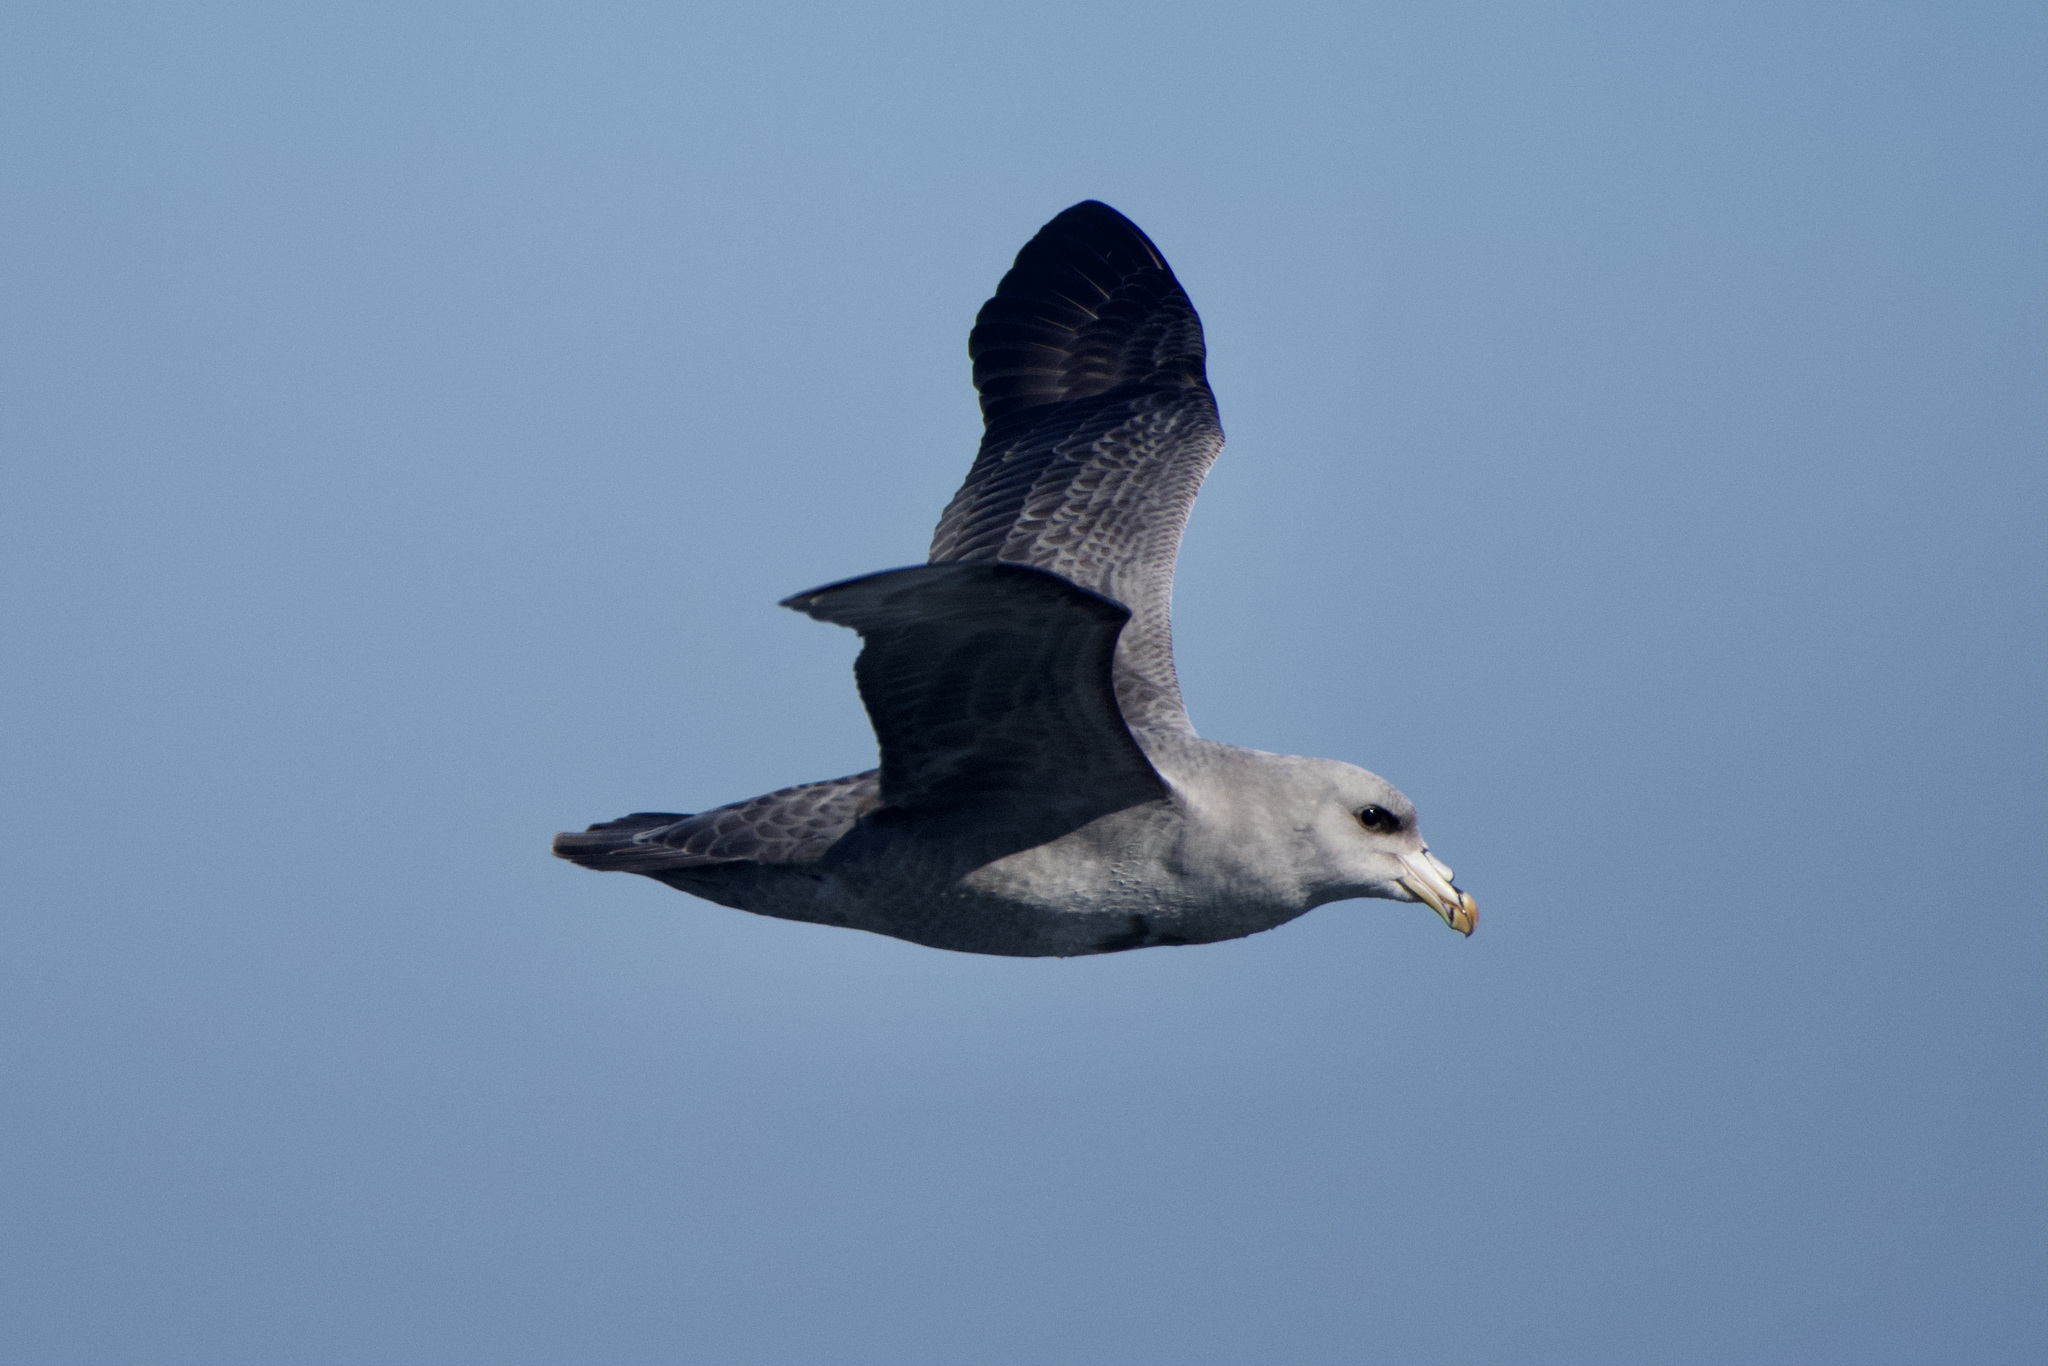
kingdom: Animalia
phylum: Chordata
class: Aves
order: Procellariiformes
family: Procellariidae
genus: Fulmarus
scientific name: Fulmarus glacialis
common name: Northern fulmar
